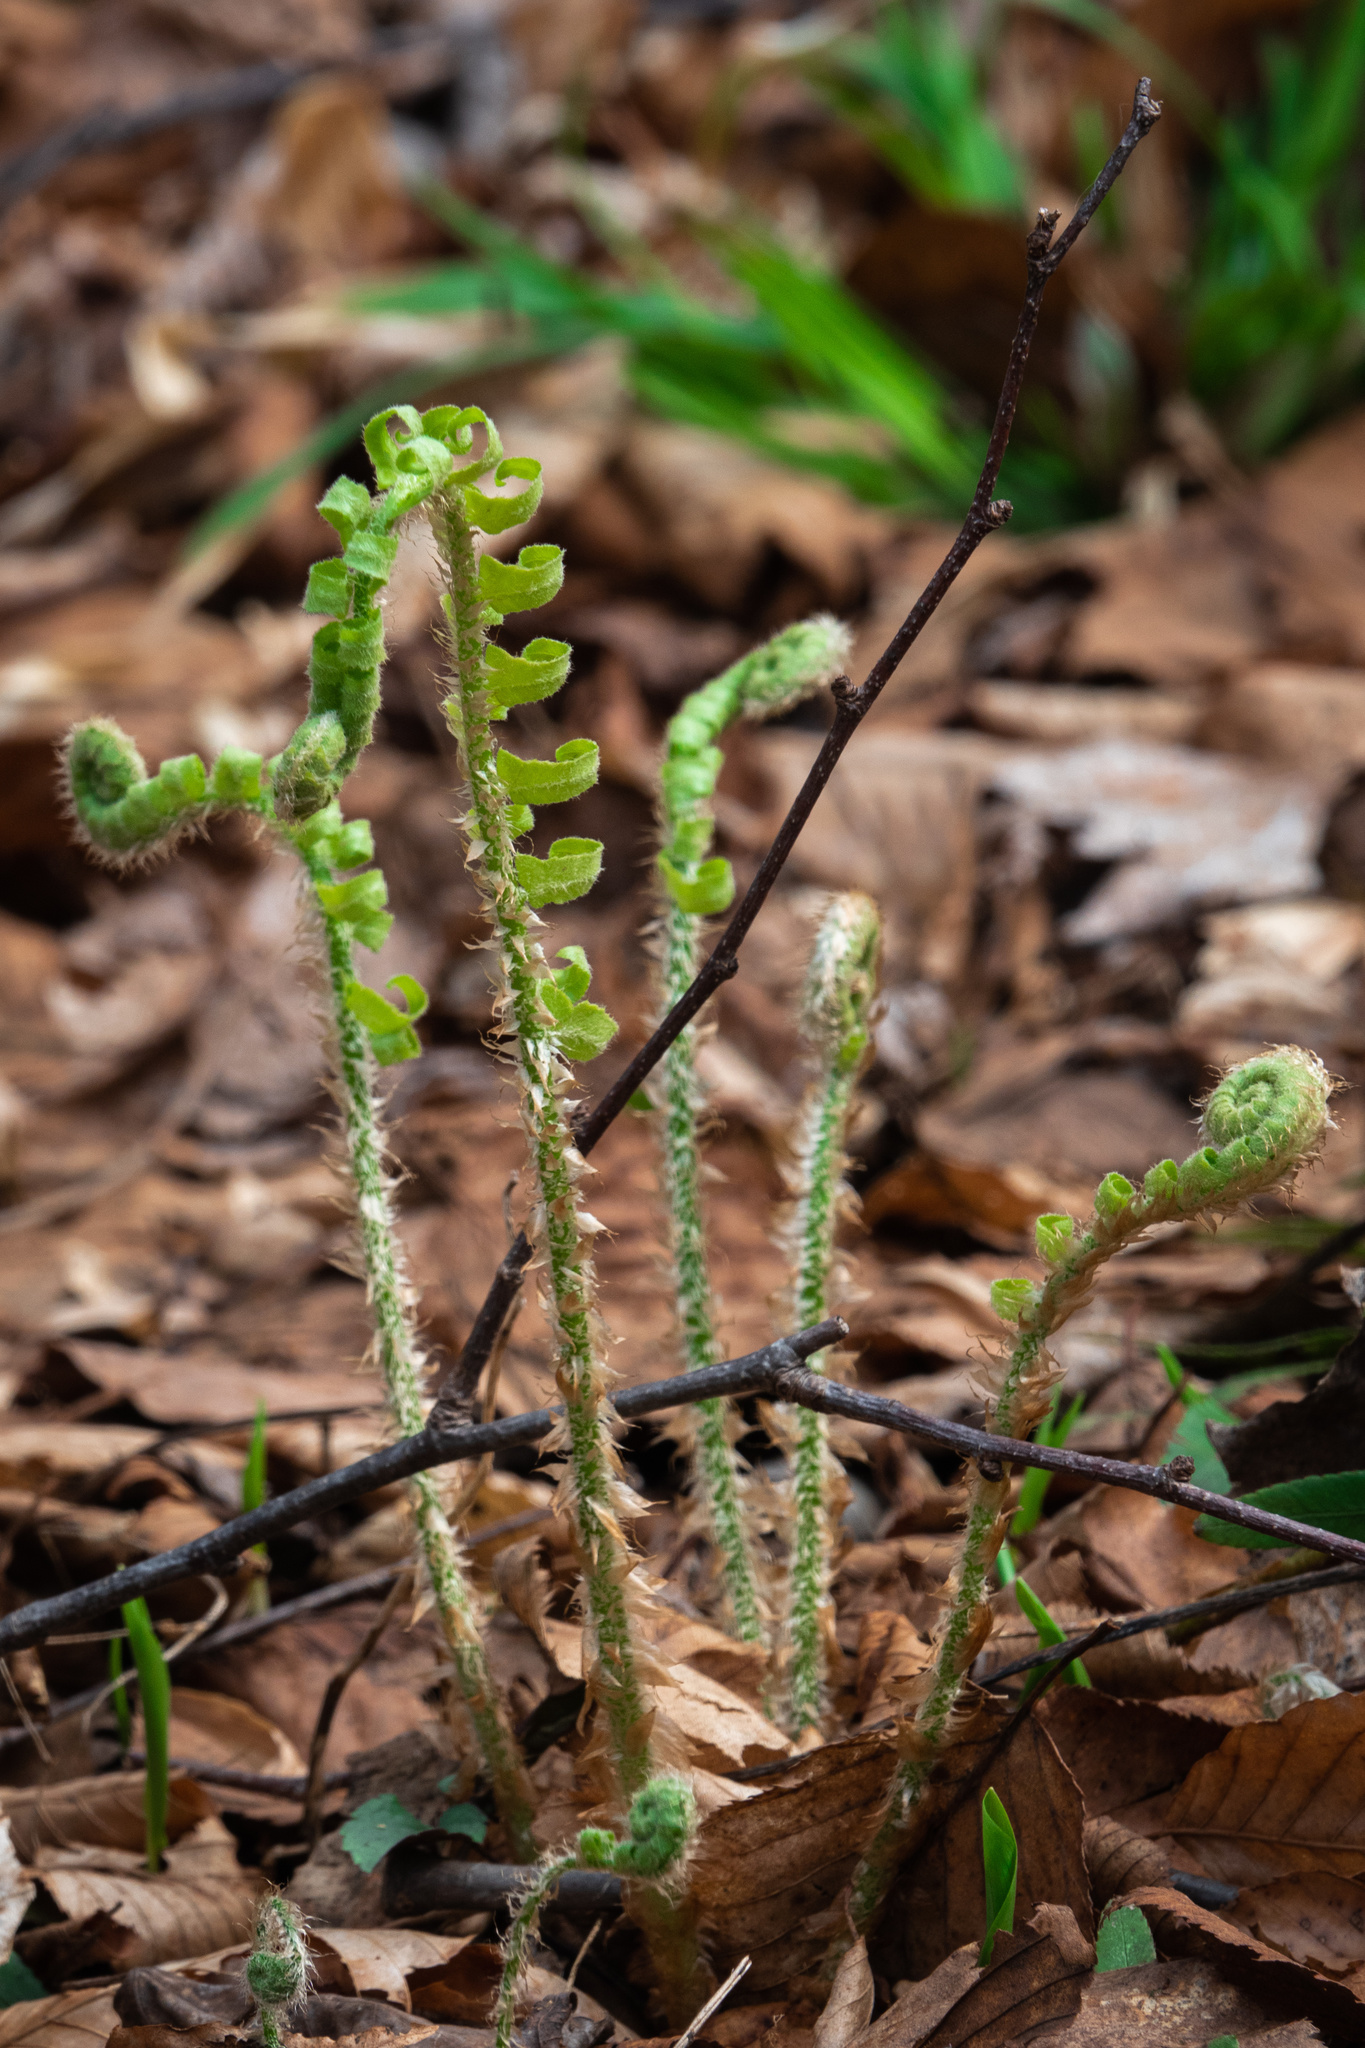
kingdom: Plantae
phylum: Tracheophyta
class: Polypodiopsida
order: Polypodiales
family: Dryopteridaceae
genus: Polystichum
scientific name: Polystichum acrostichoides
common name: Christmas fern
